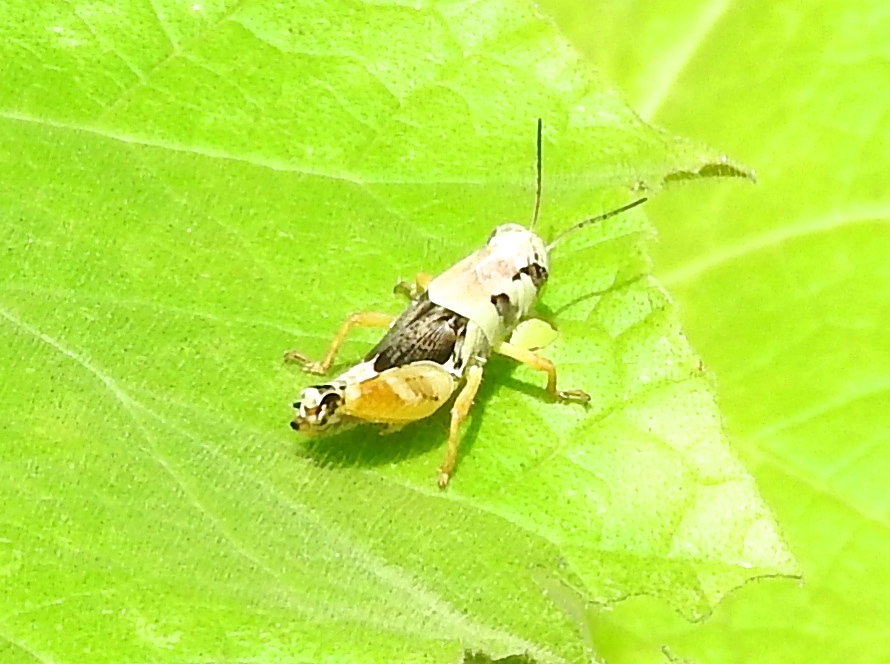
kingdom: Animalia
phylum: Arthropoda
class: Insecta
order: Orthoptera
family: Acrididae
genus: Aidemona
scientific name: Aidemona azteca
